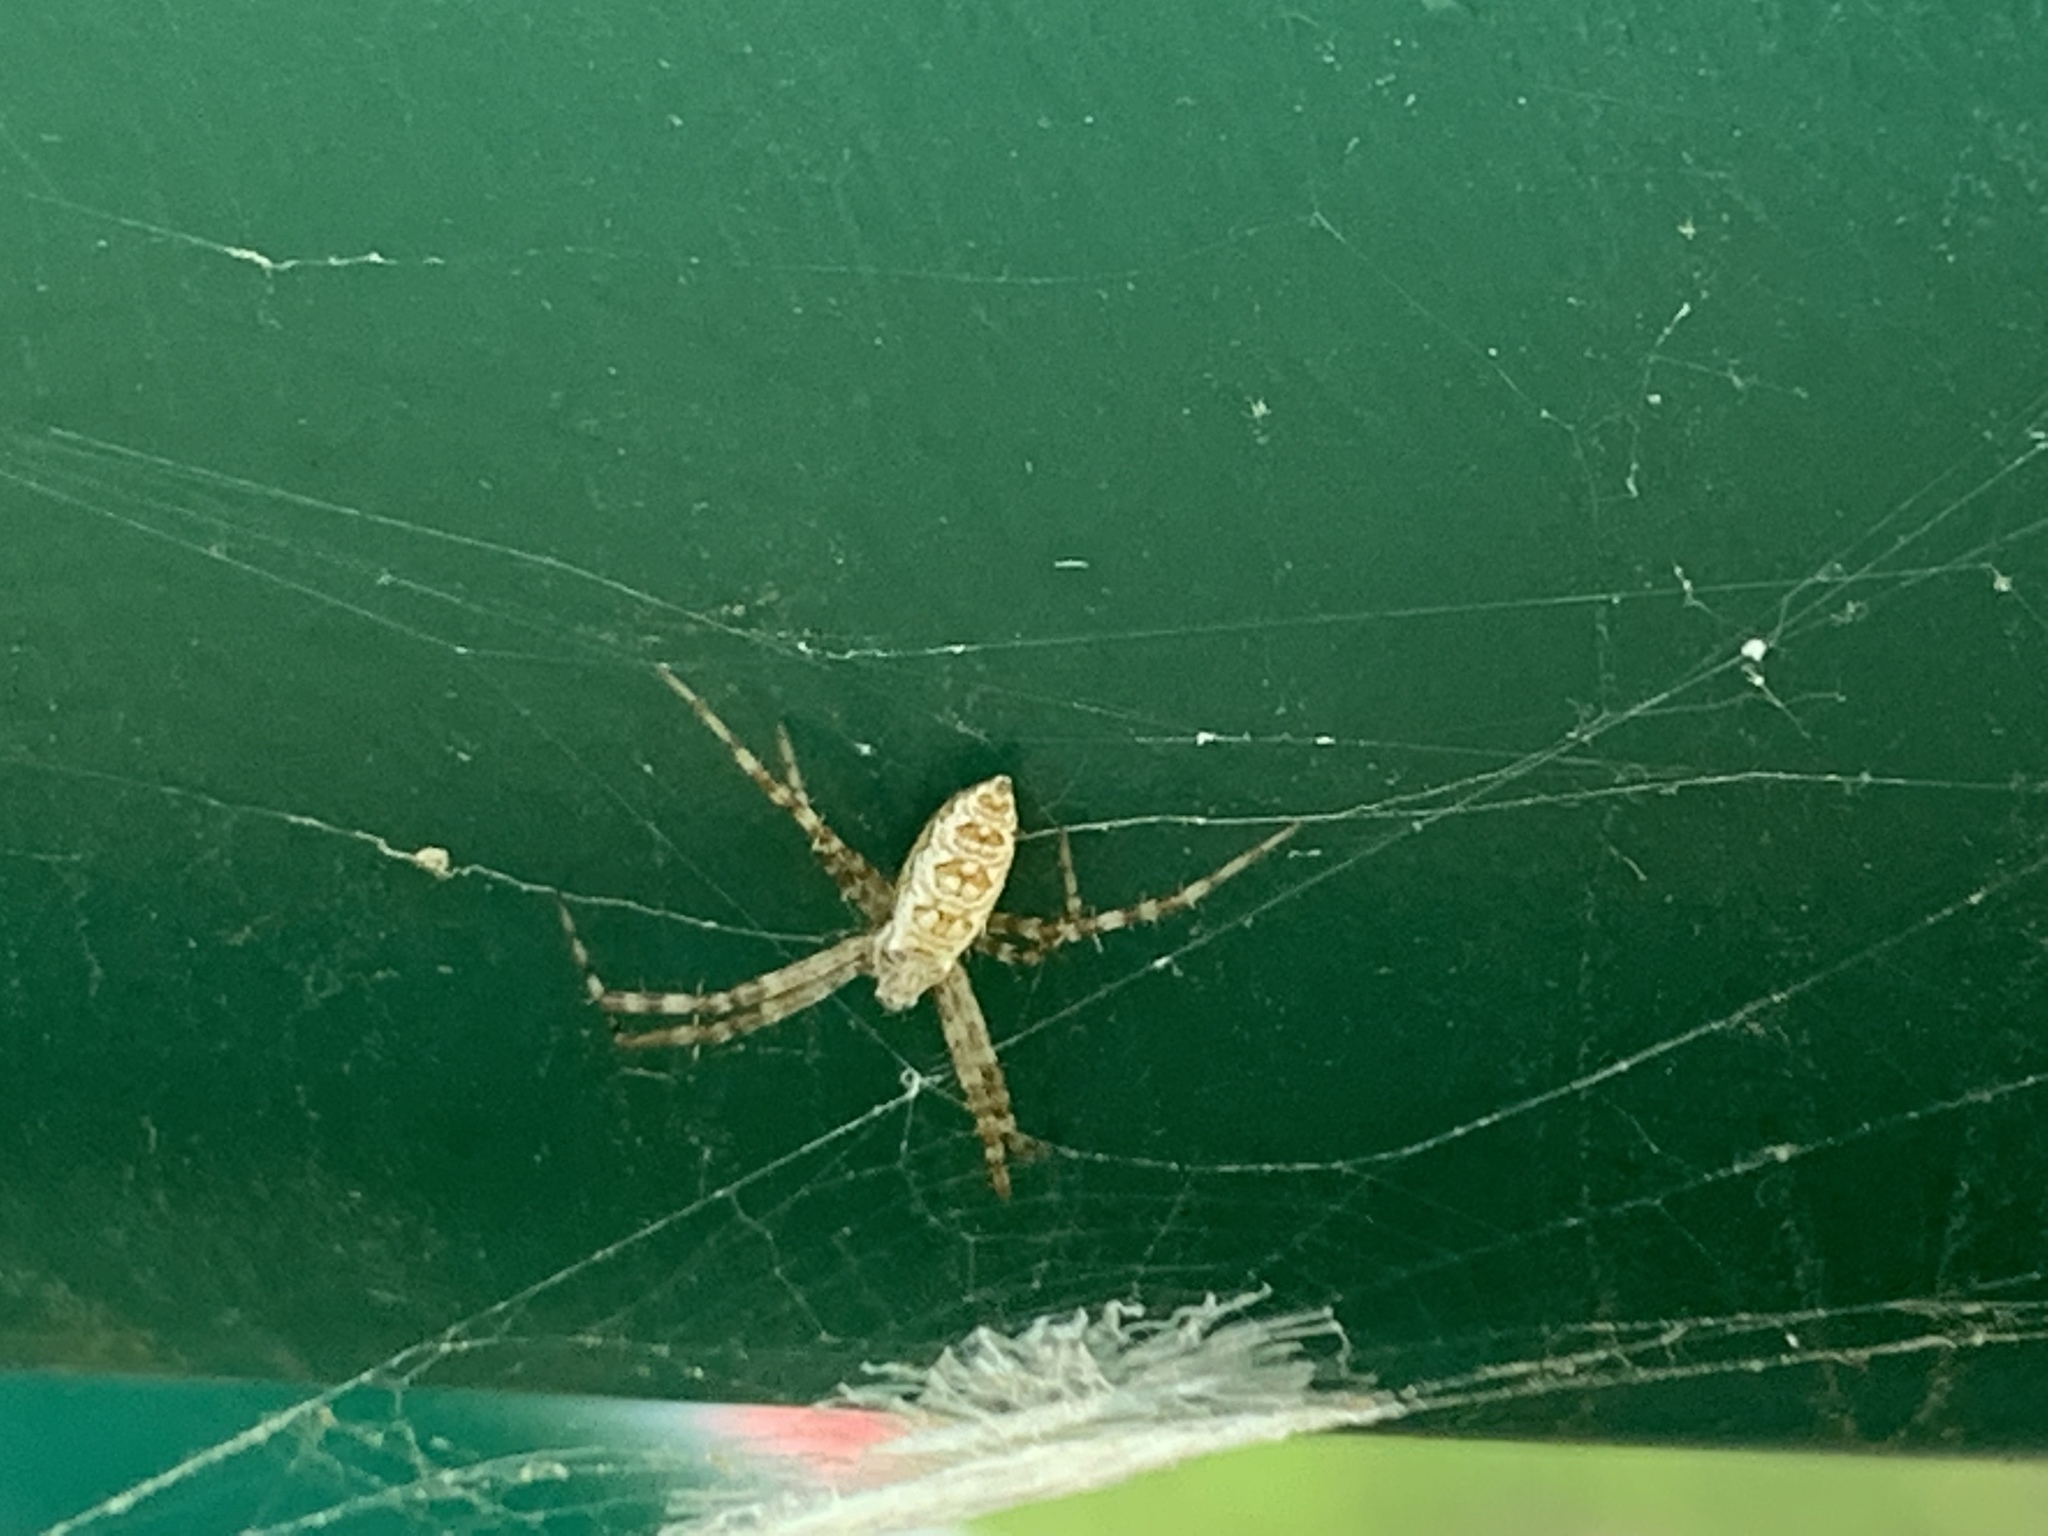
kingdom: Animalia
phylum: Arthropoda
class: Arachnida
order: Araneae
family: Araneidae
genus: Argiope
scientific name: Argiope aurantia
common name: Orb weavers
